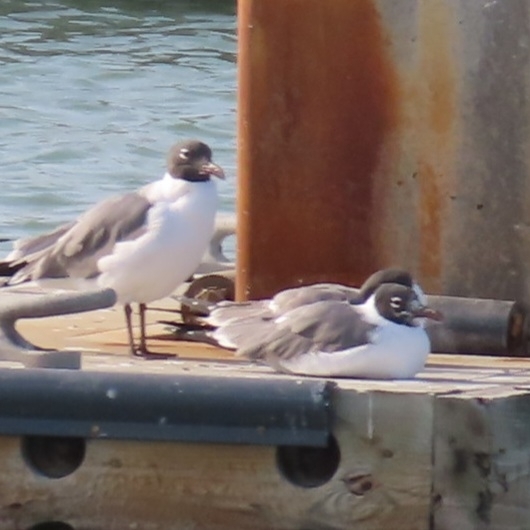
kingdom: Animalia
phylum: Chordata
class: Aves
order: Charadriiformes
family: Laridae
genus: Leucophaeus
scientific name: Leucophaeus atricilla
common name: Laughing gull
